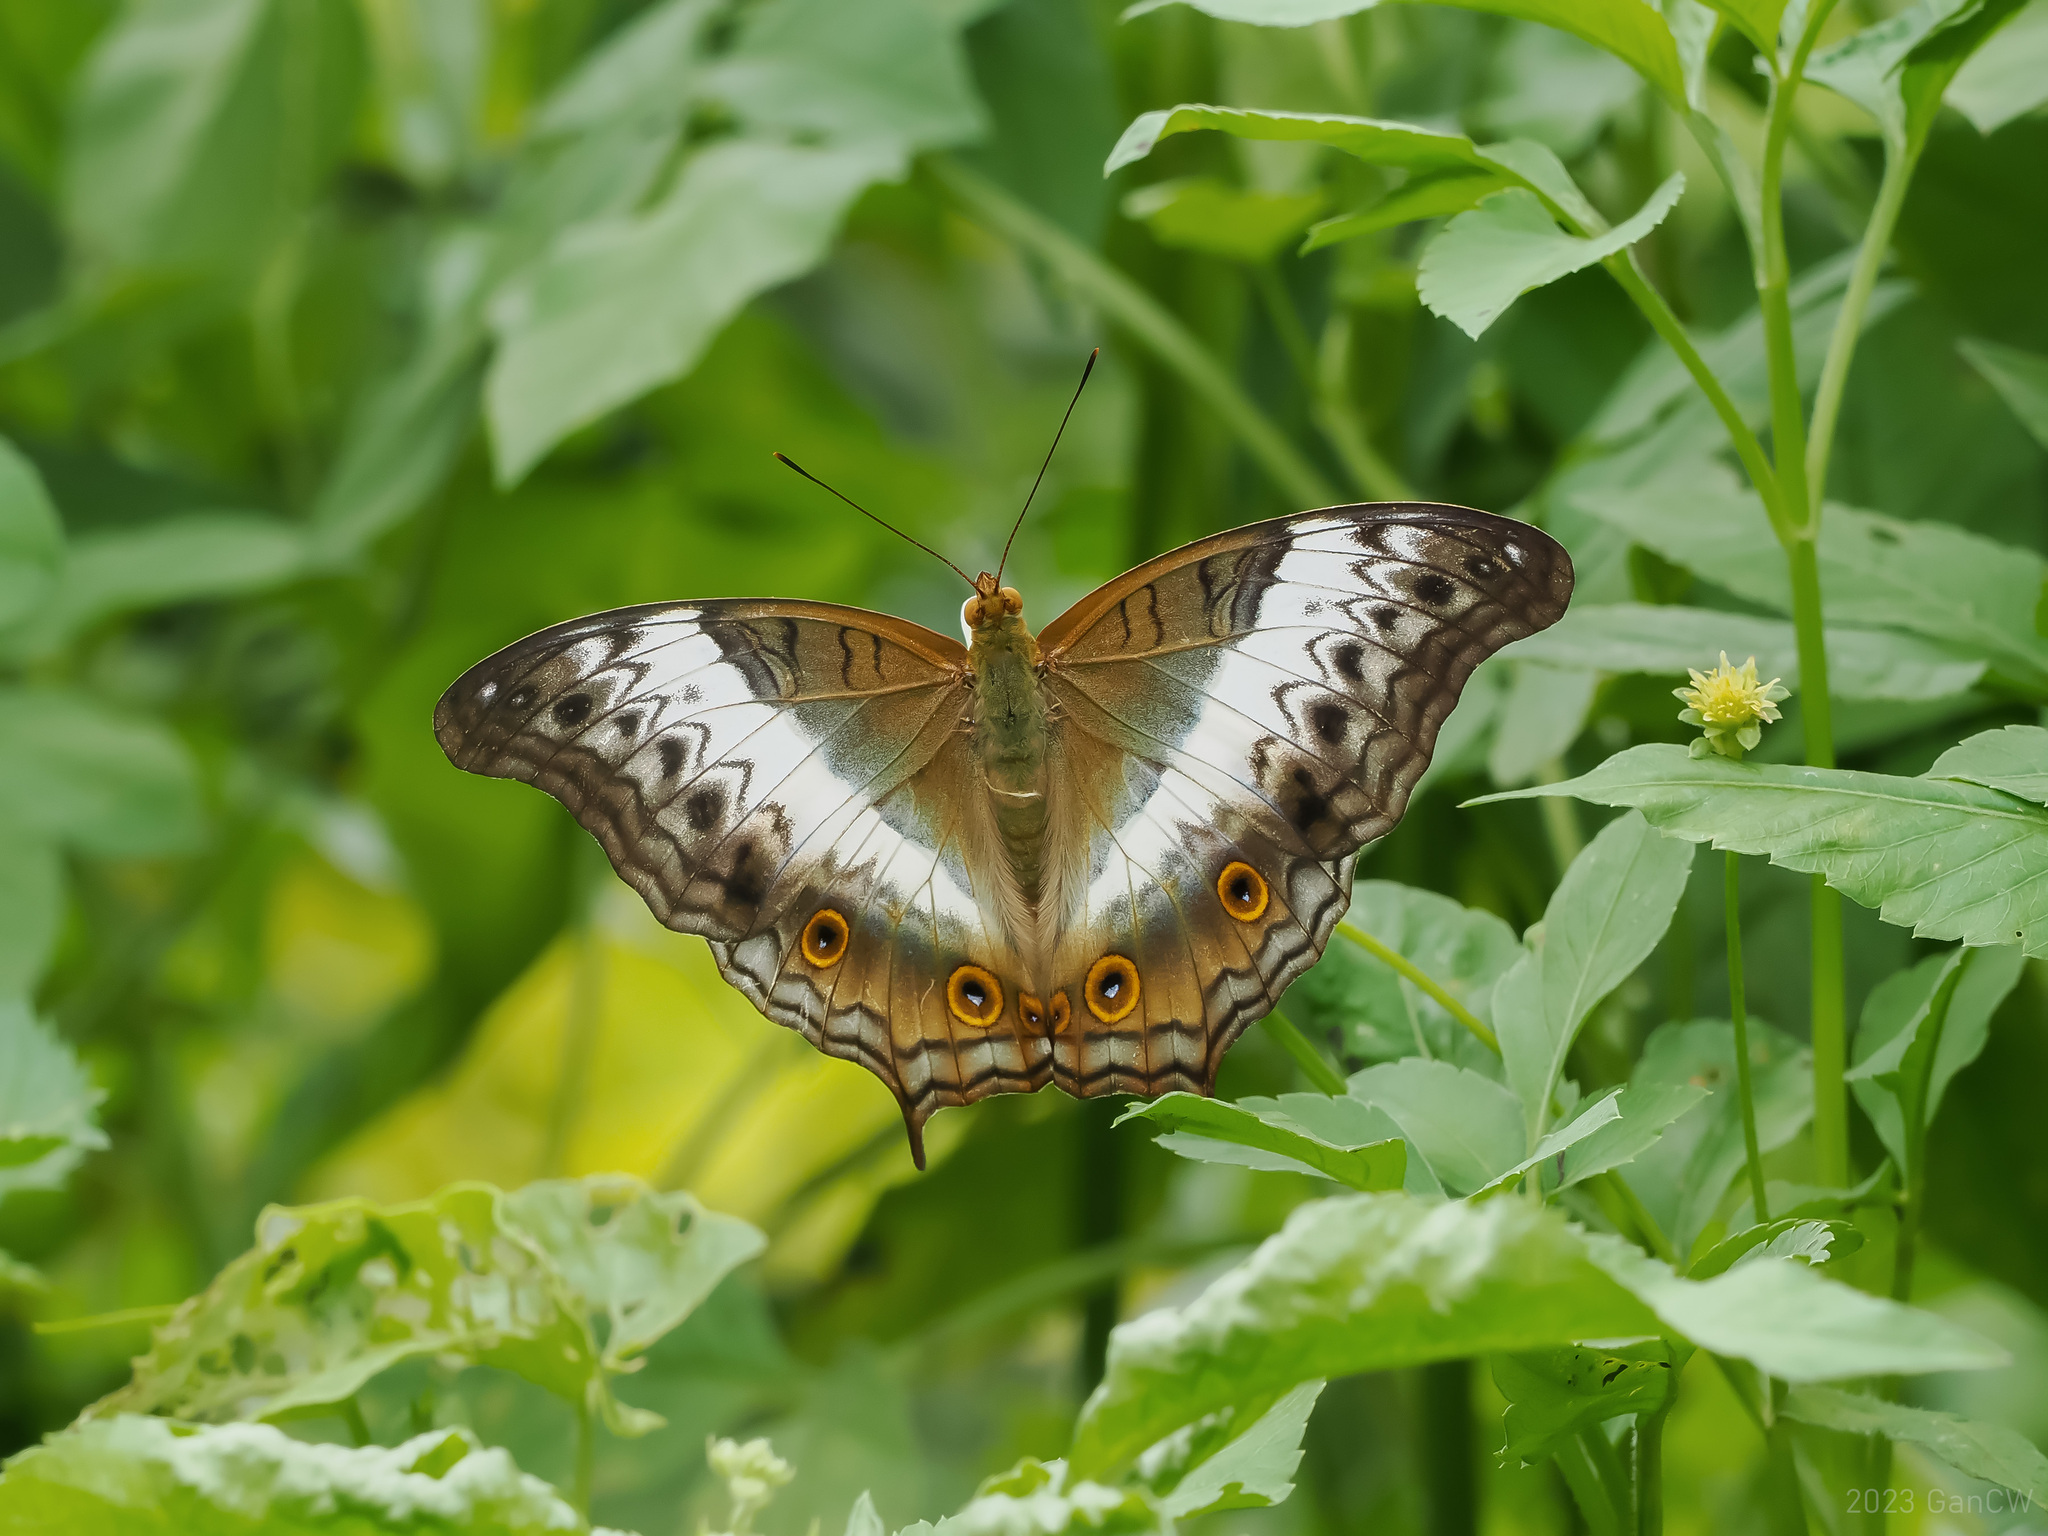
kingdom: Animalia
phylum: Arthropoda
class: Insecta
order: Lepidoptera
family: Nymphalidae
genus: Vindula
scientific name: Vindula deione
